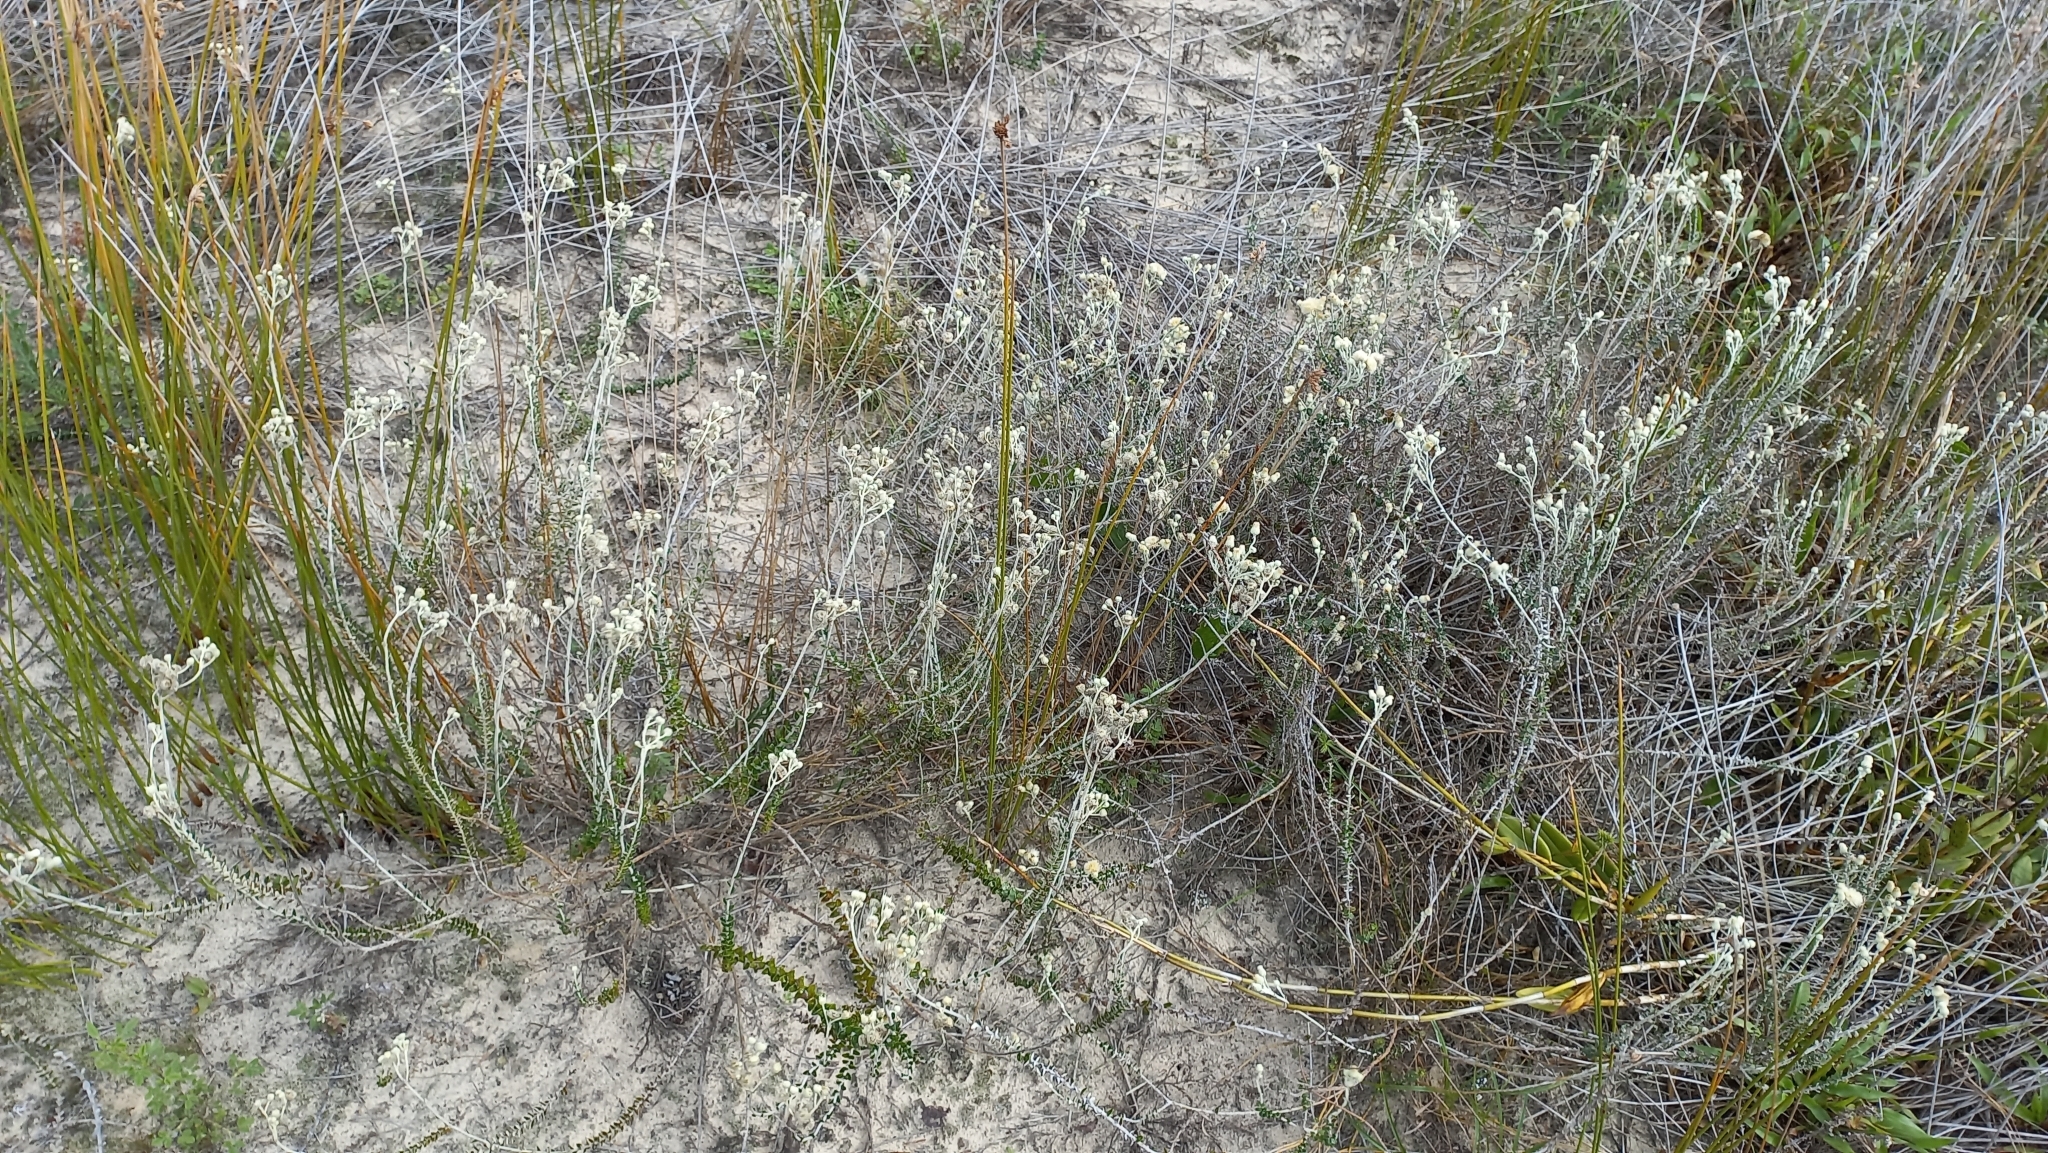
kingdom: Plantae
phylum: Tracheophyta
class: Magnoliopsida
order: Asterales
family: Asteraceae
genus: Baccharis
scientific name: Baccharis gnaphalioides
